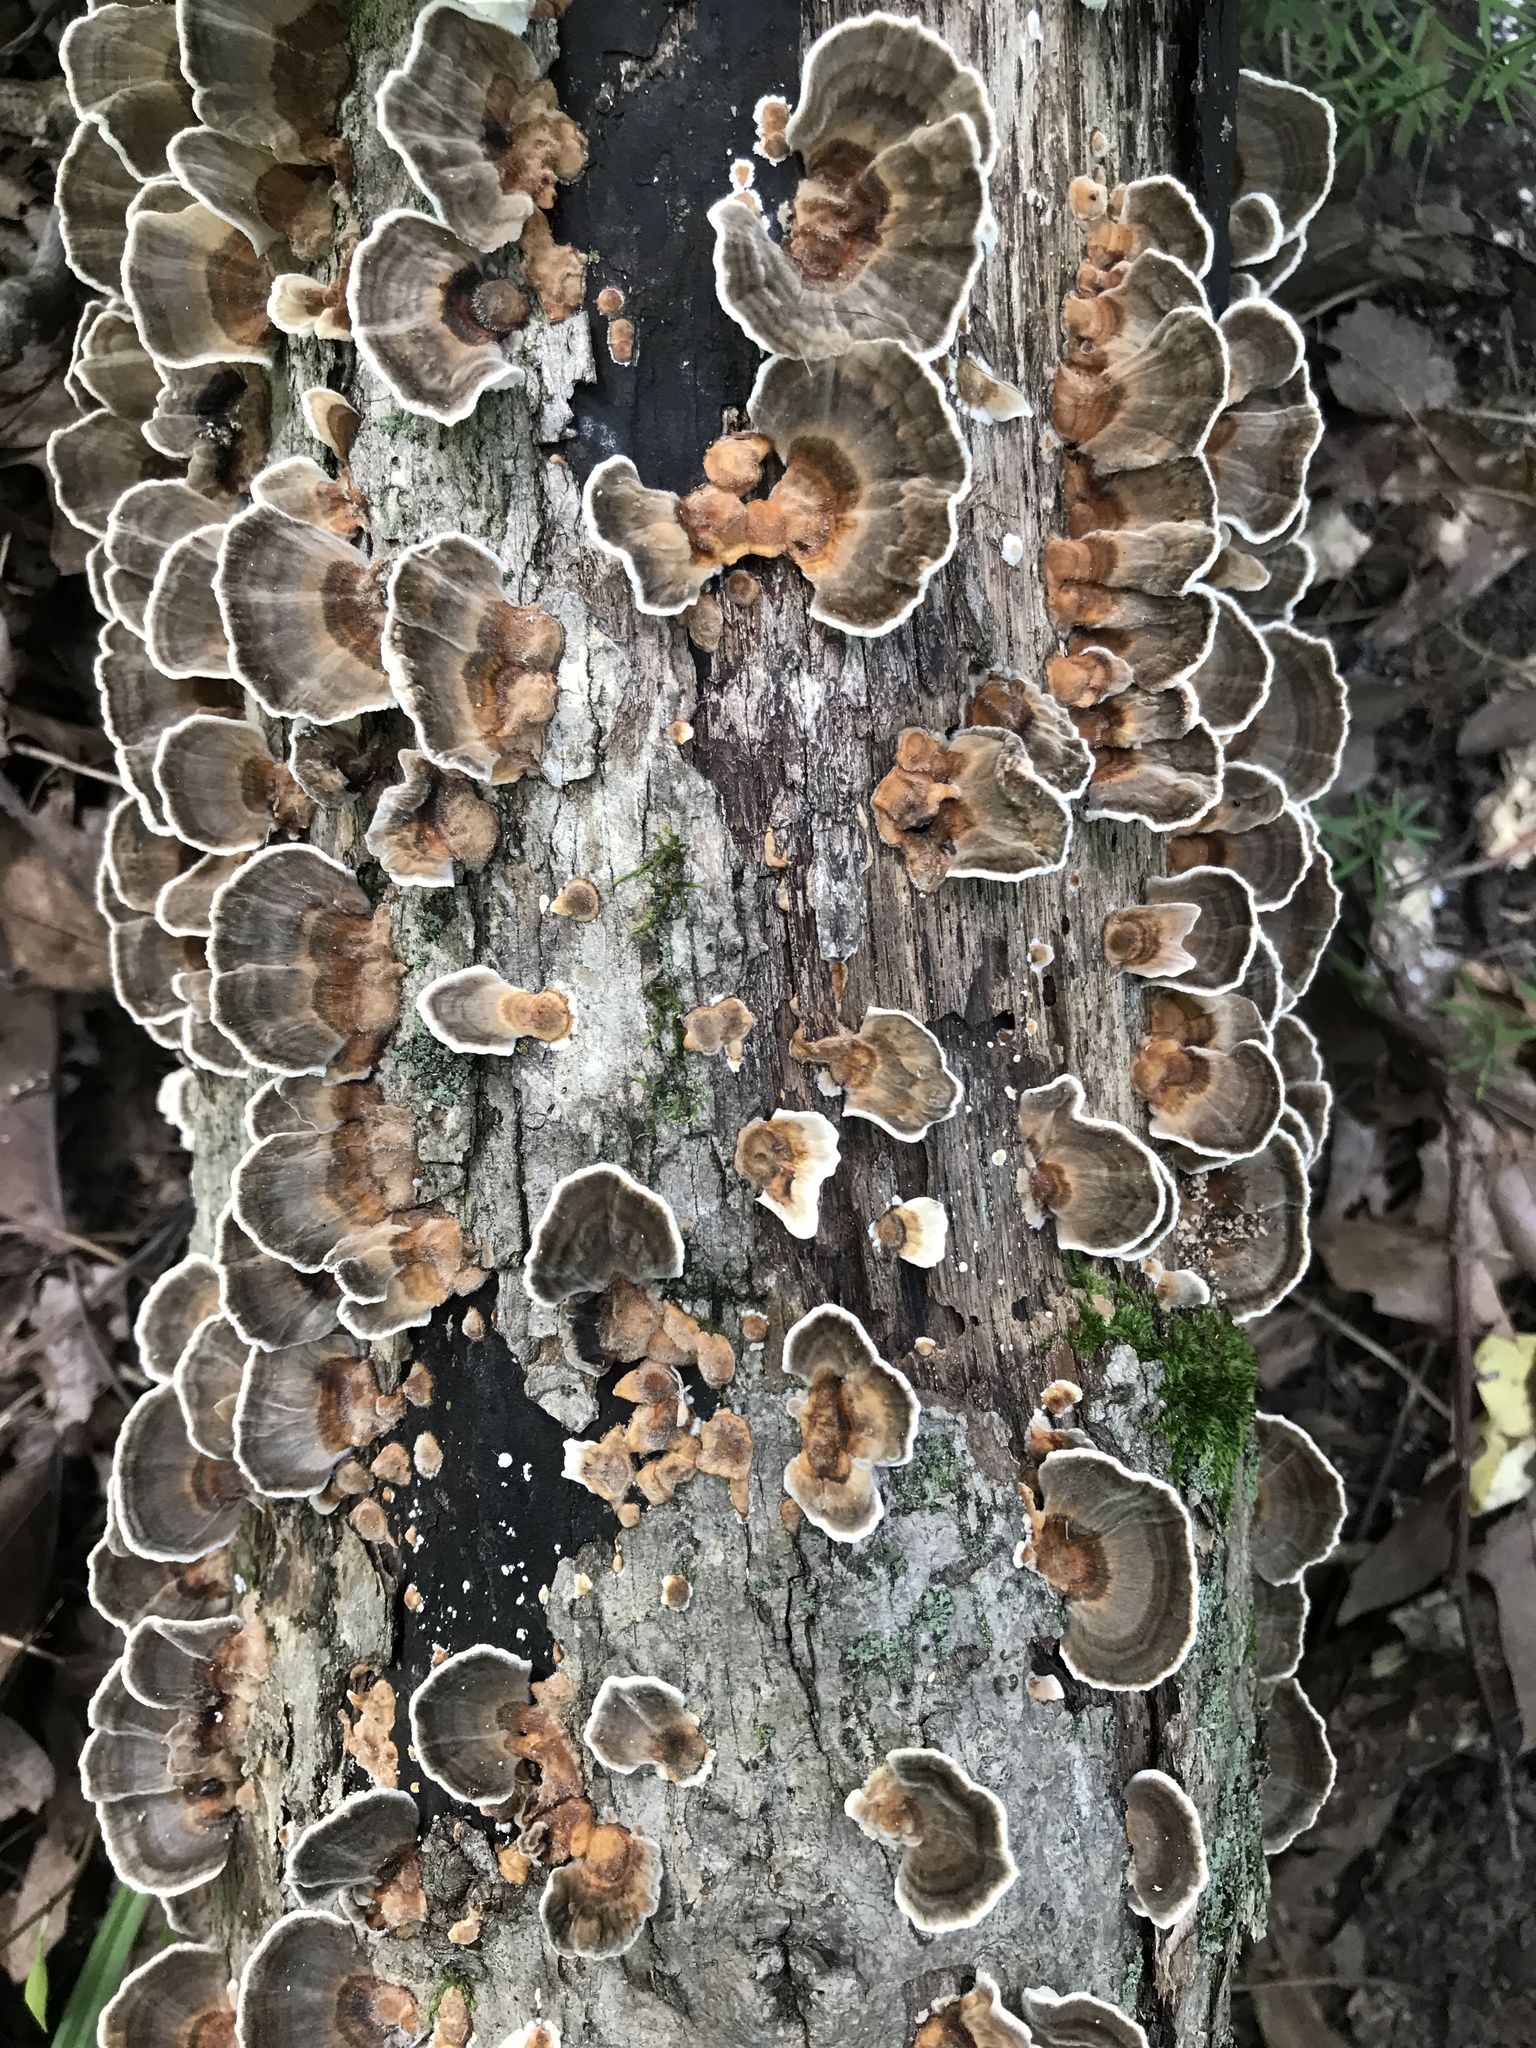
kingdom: Fungi
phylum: Basidiomycota
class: Agaricomycetes
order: Polyporales
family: Polyporaceae
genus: Trametes
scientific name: Trametes versicolor
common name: Turkeytail
